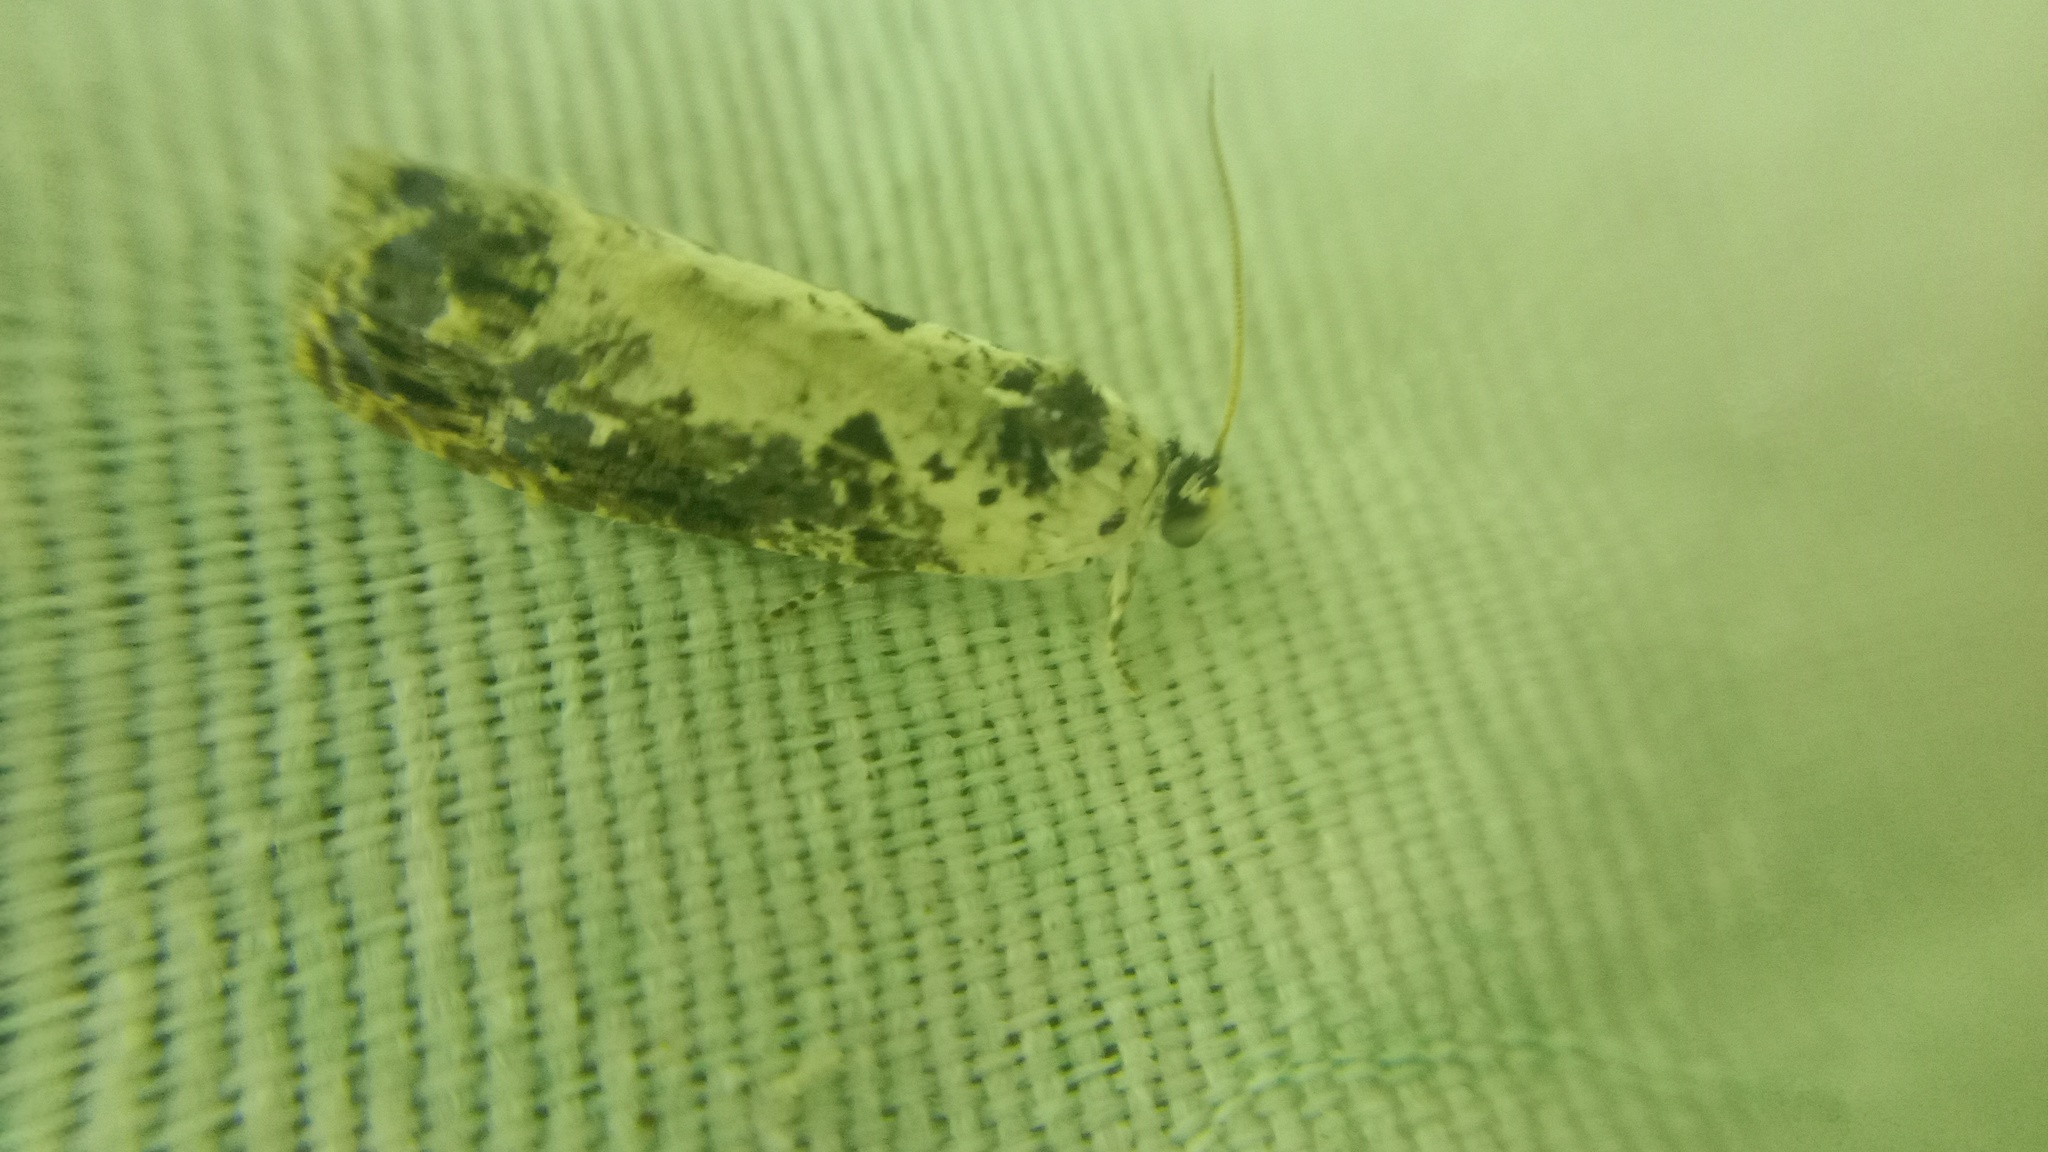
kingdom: Animalia
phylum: Arthropoda
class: Insecta
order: Lepidoptera
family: Tortricidae
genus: Hedya
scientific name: Hedya salicella
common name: Large tortricid moth
